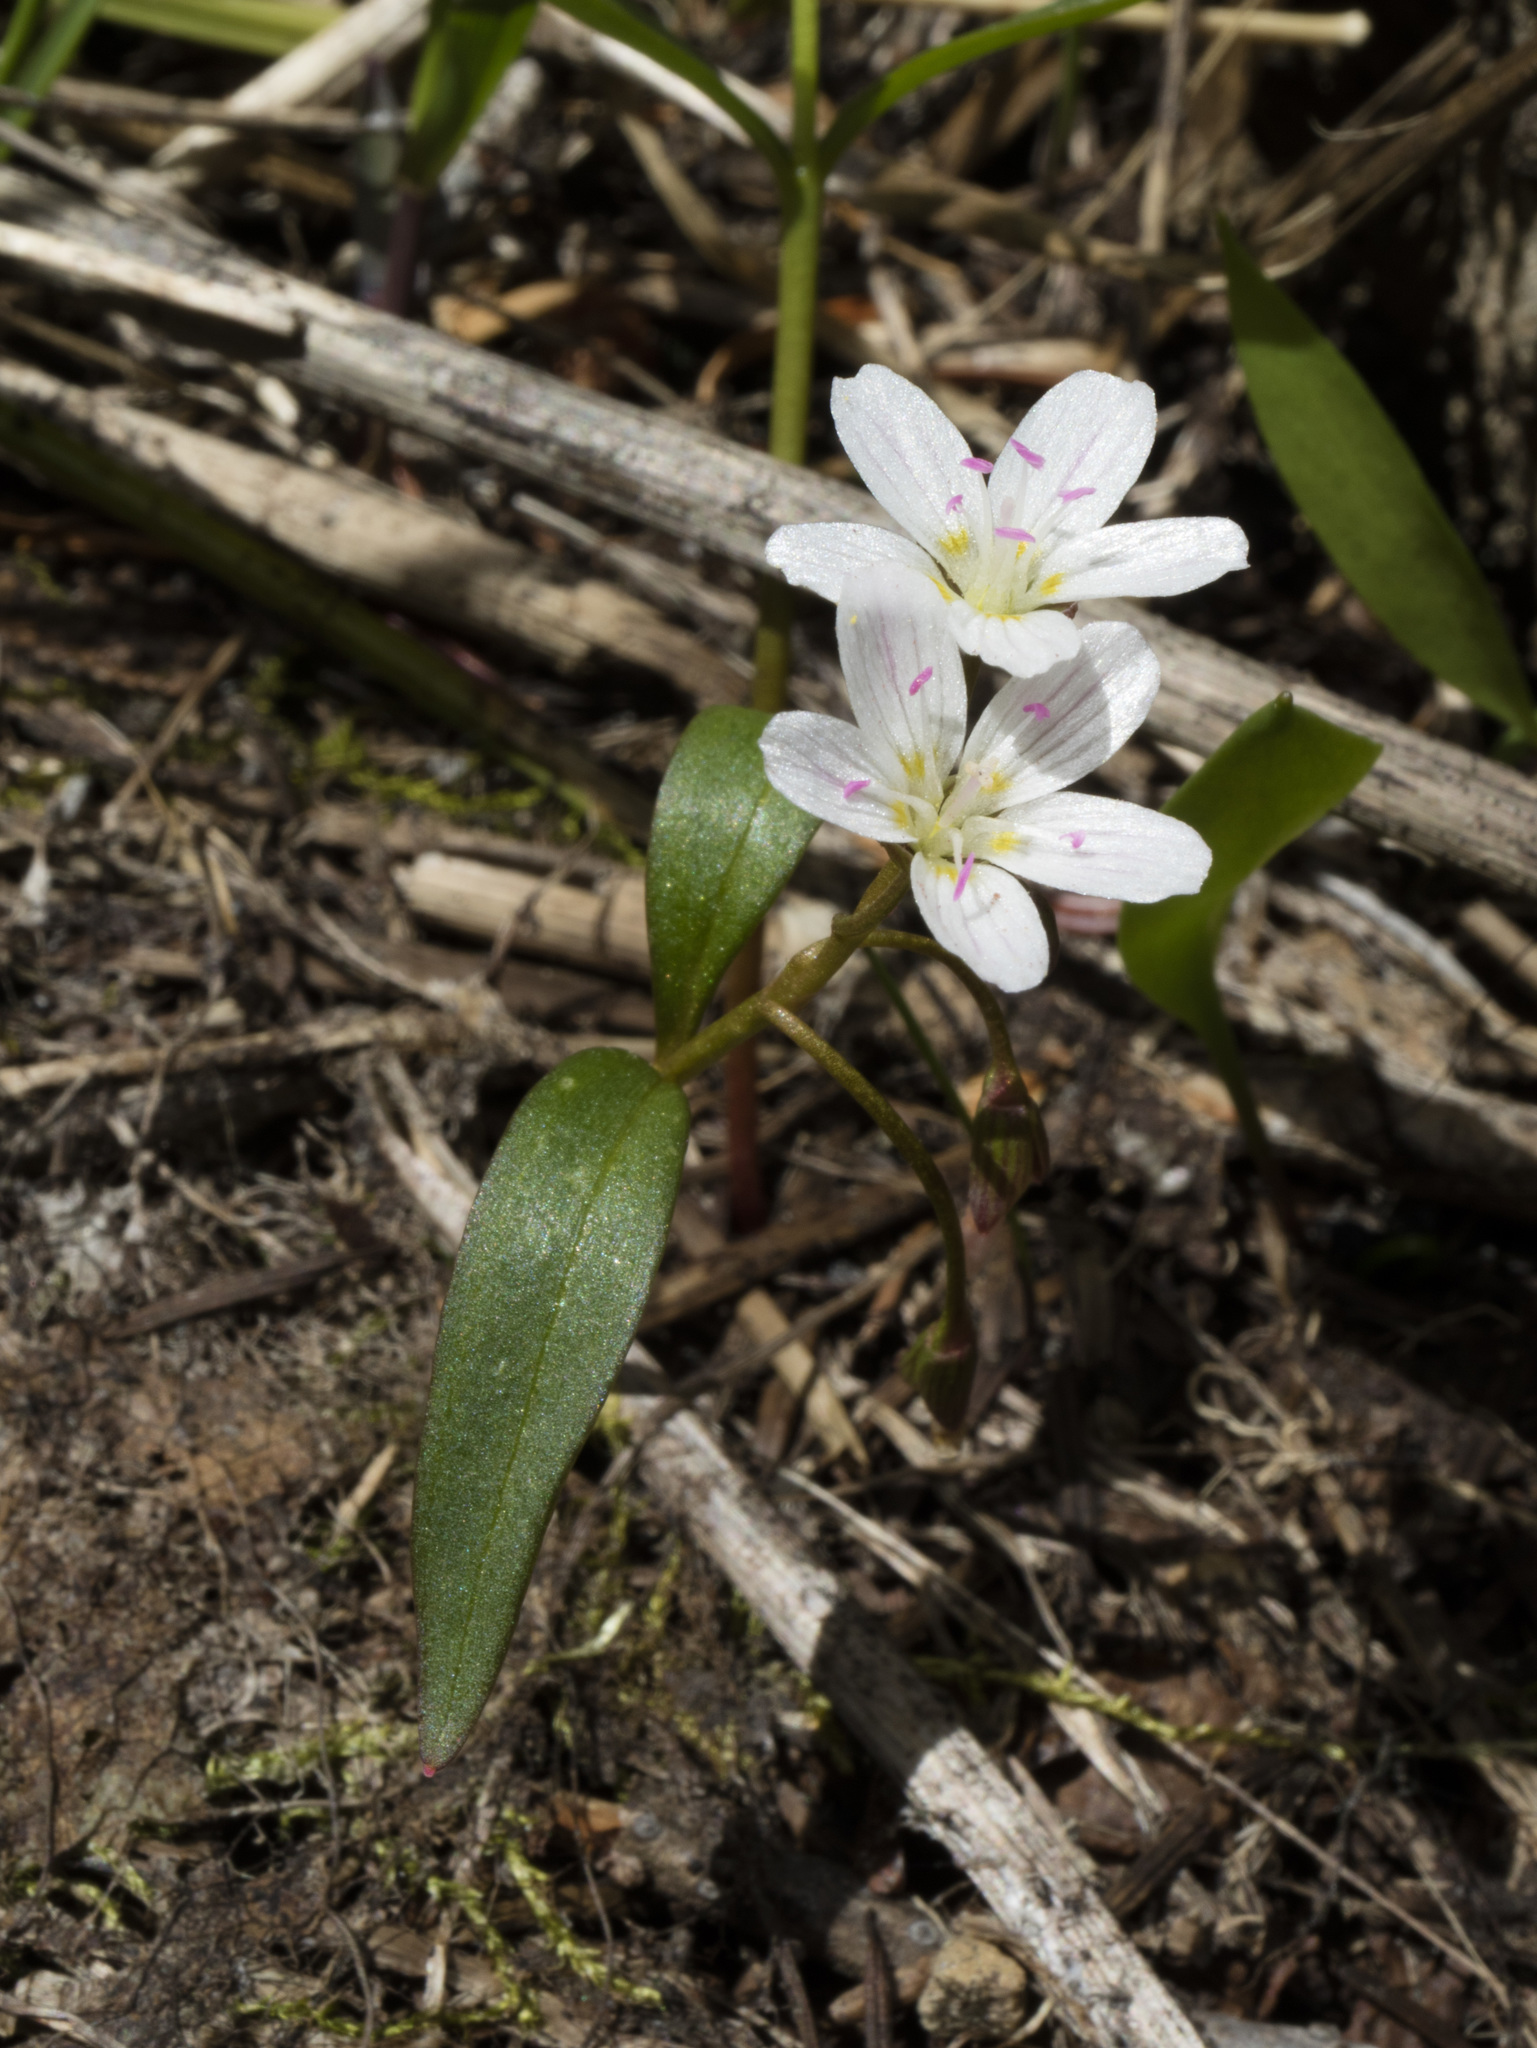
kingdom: Plantae
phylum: Tracheophyta
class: Magnoliopsida
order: Caryophyllales
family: Montiaceae
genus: Claytonia
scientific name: Claytonia lanceolata
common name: Western spring-beauty
